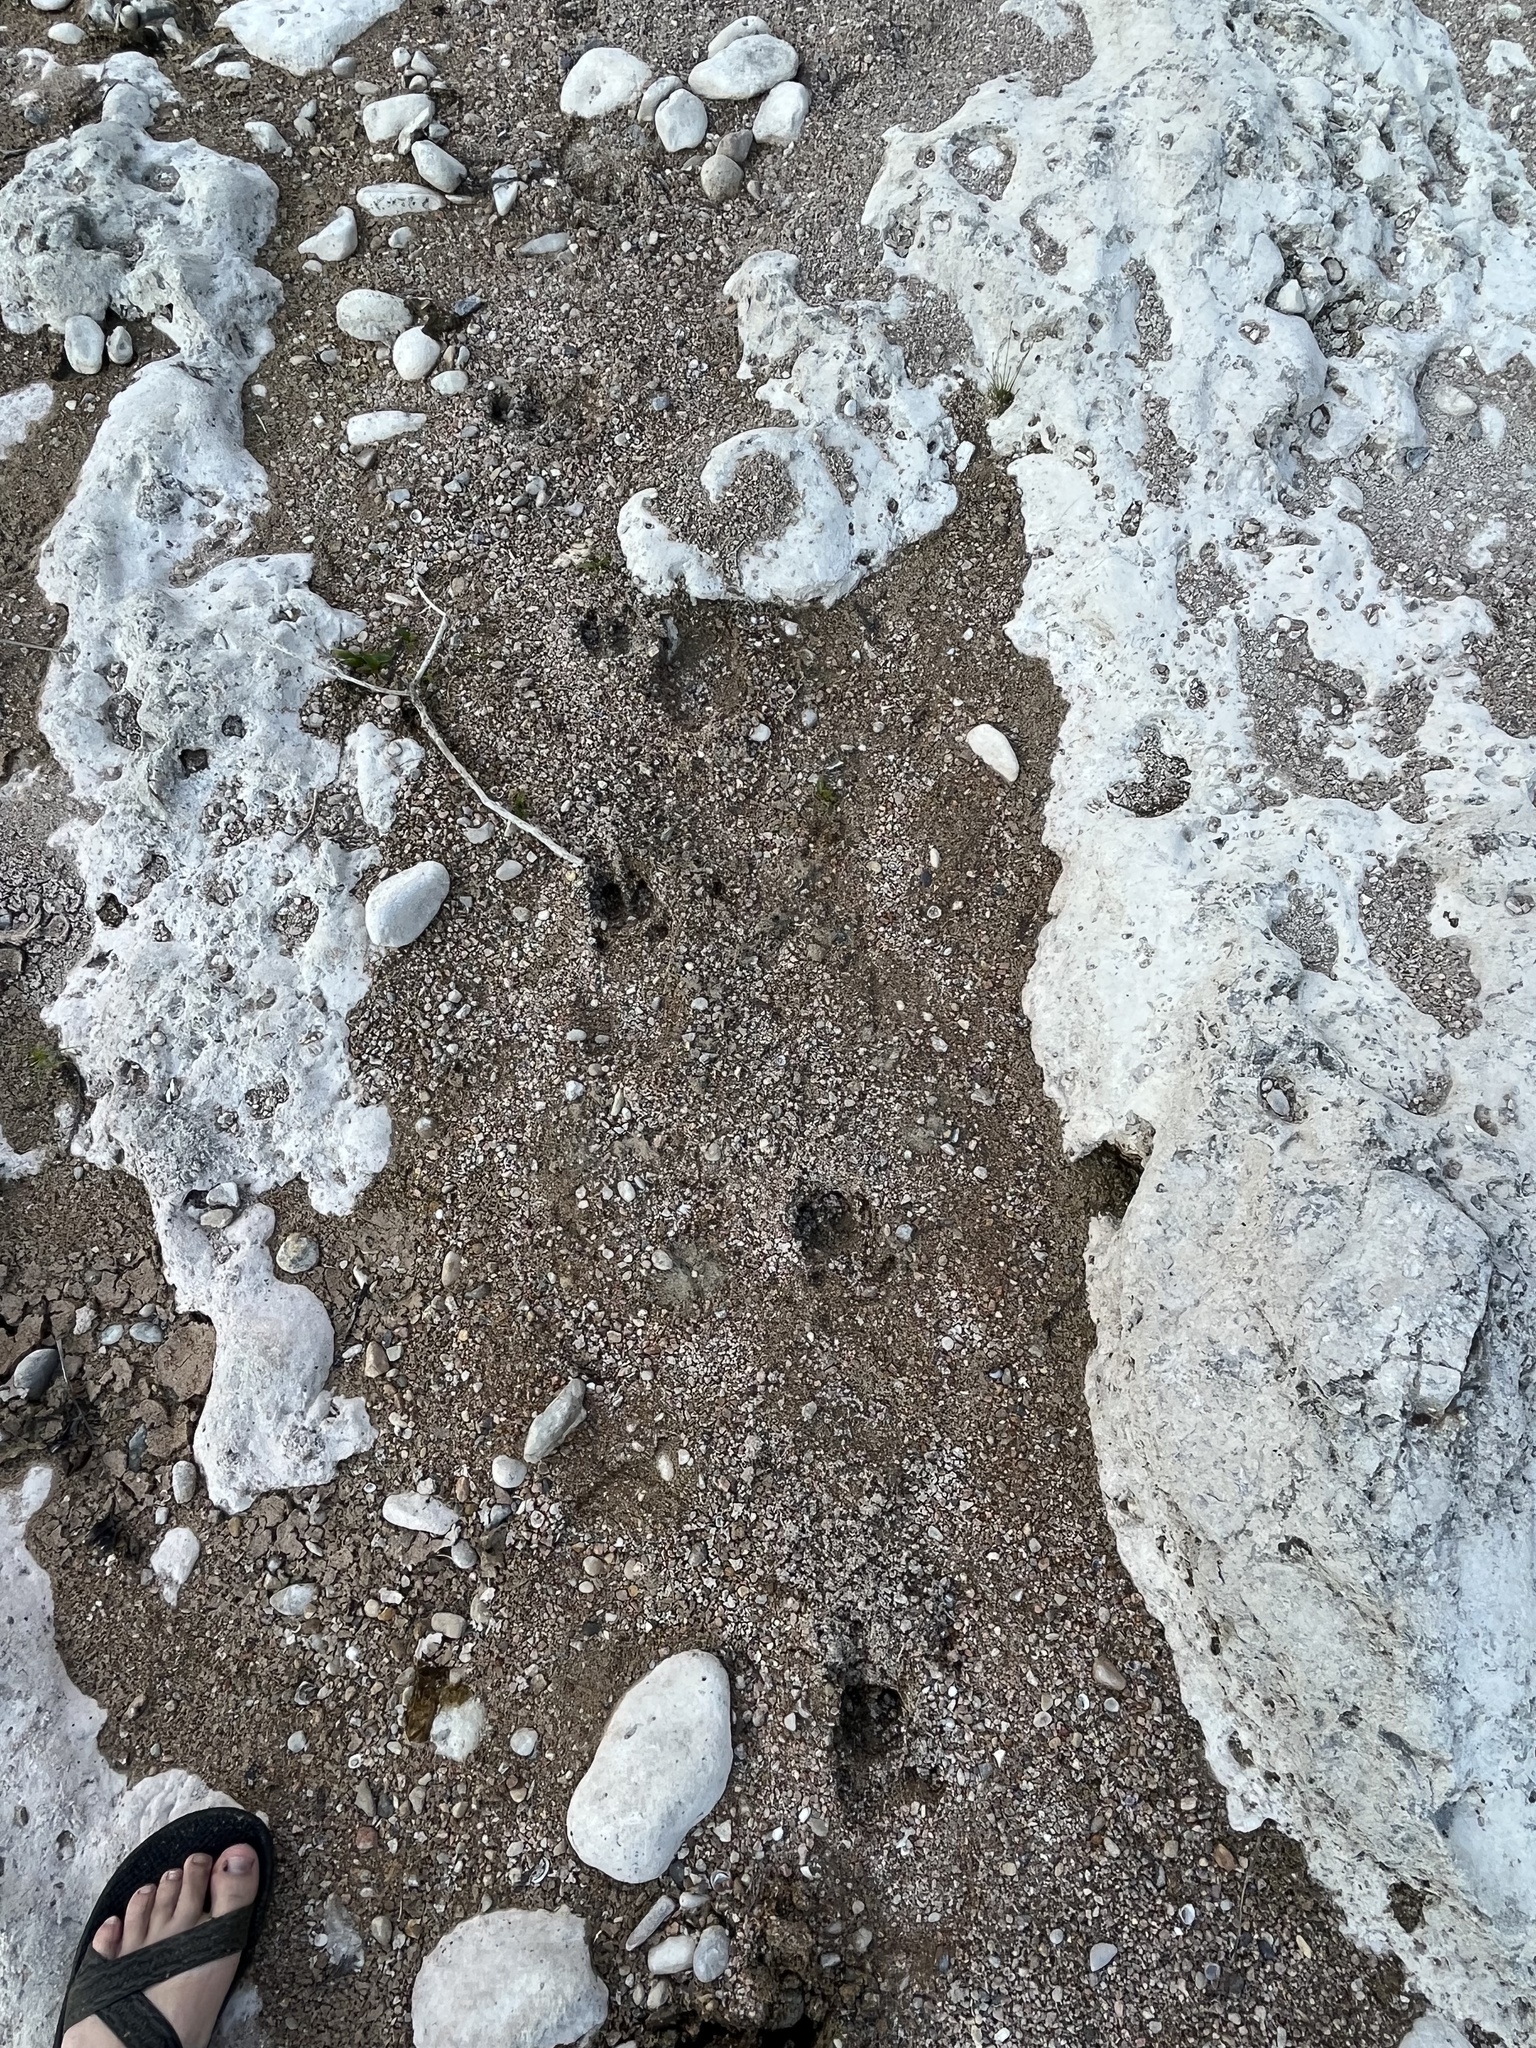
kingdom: Animalia
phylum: Chordata
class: Mammalia
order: Artiodactyla
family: Suidae
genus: Sus
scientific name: Sus scrofa
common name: Wild boar
